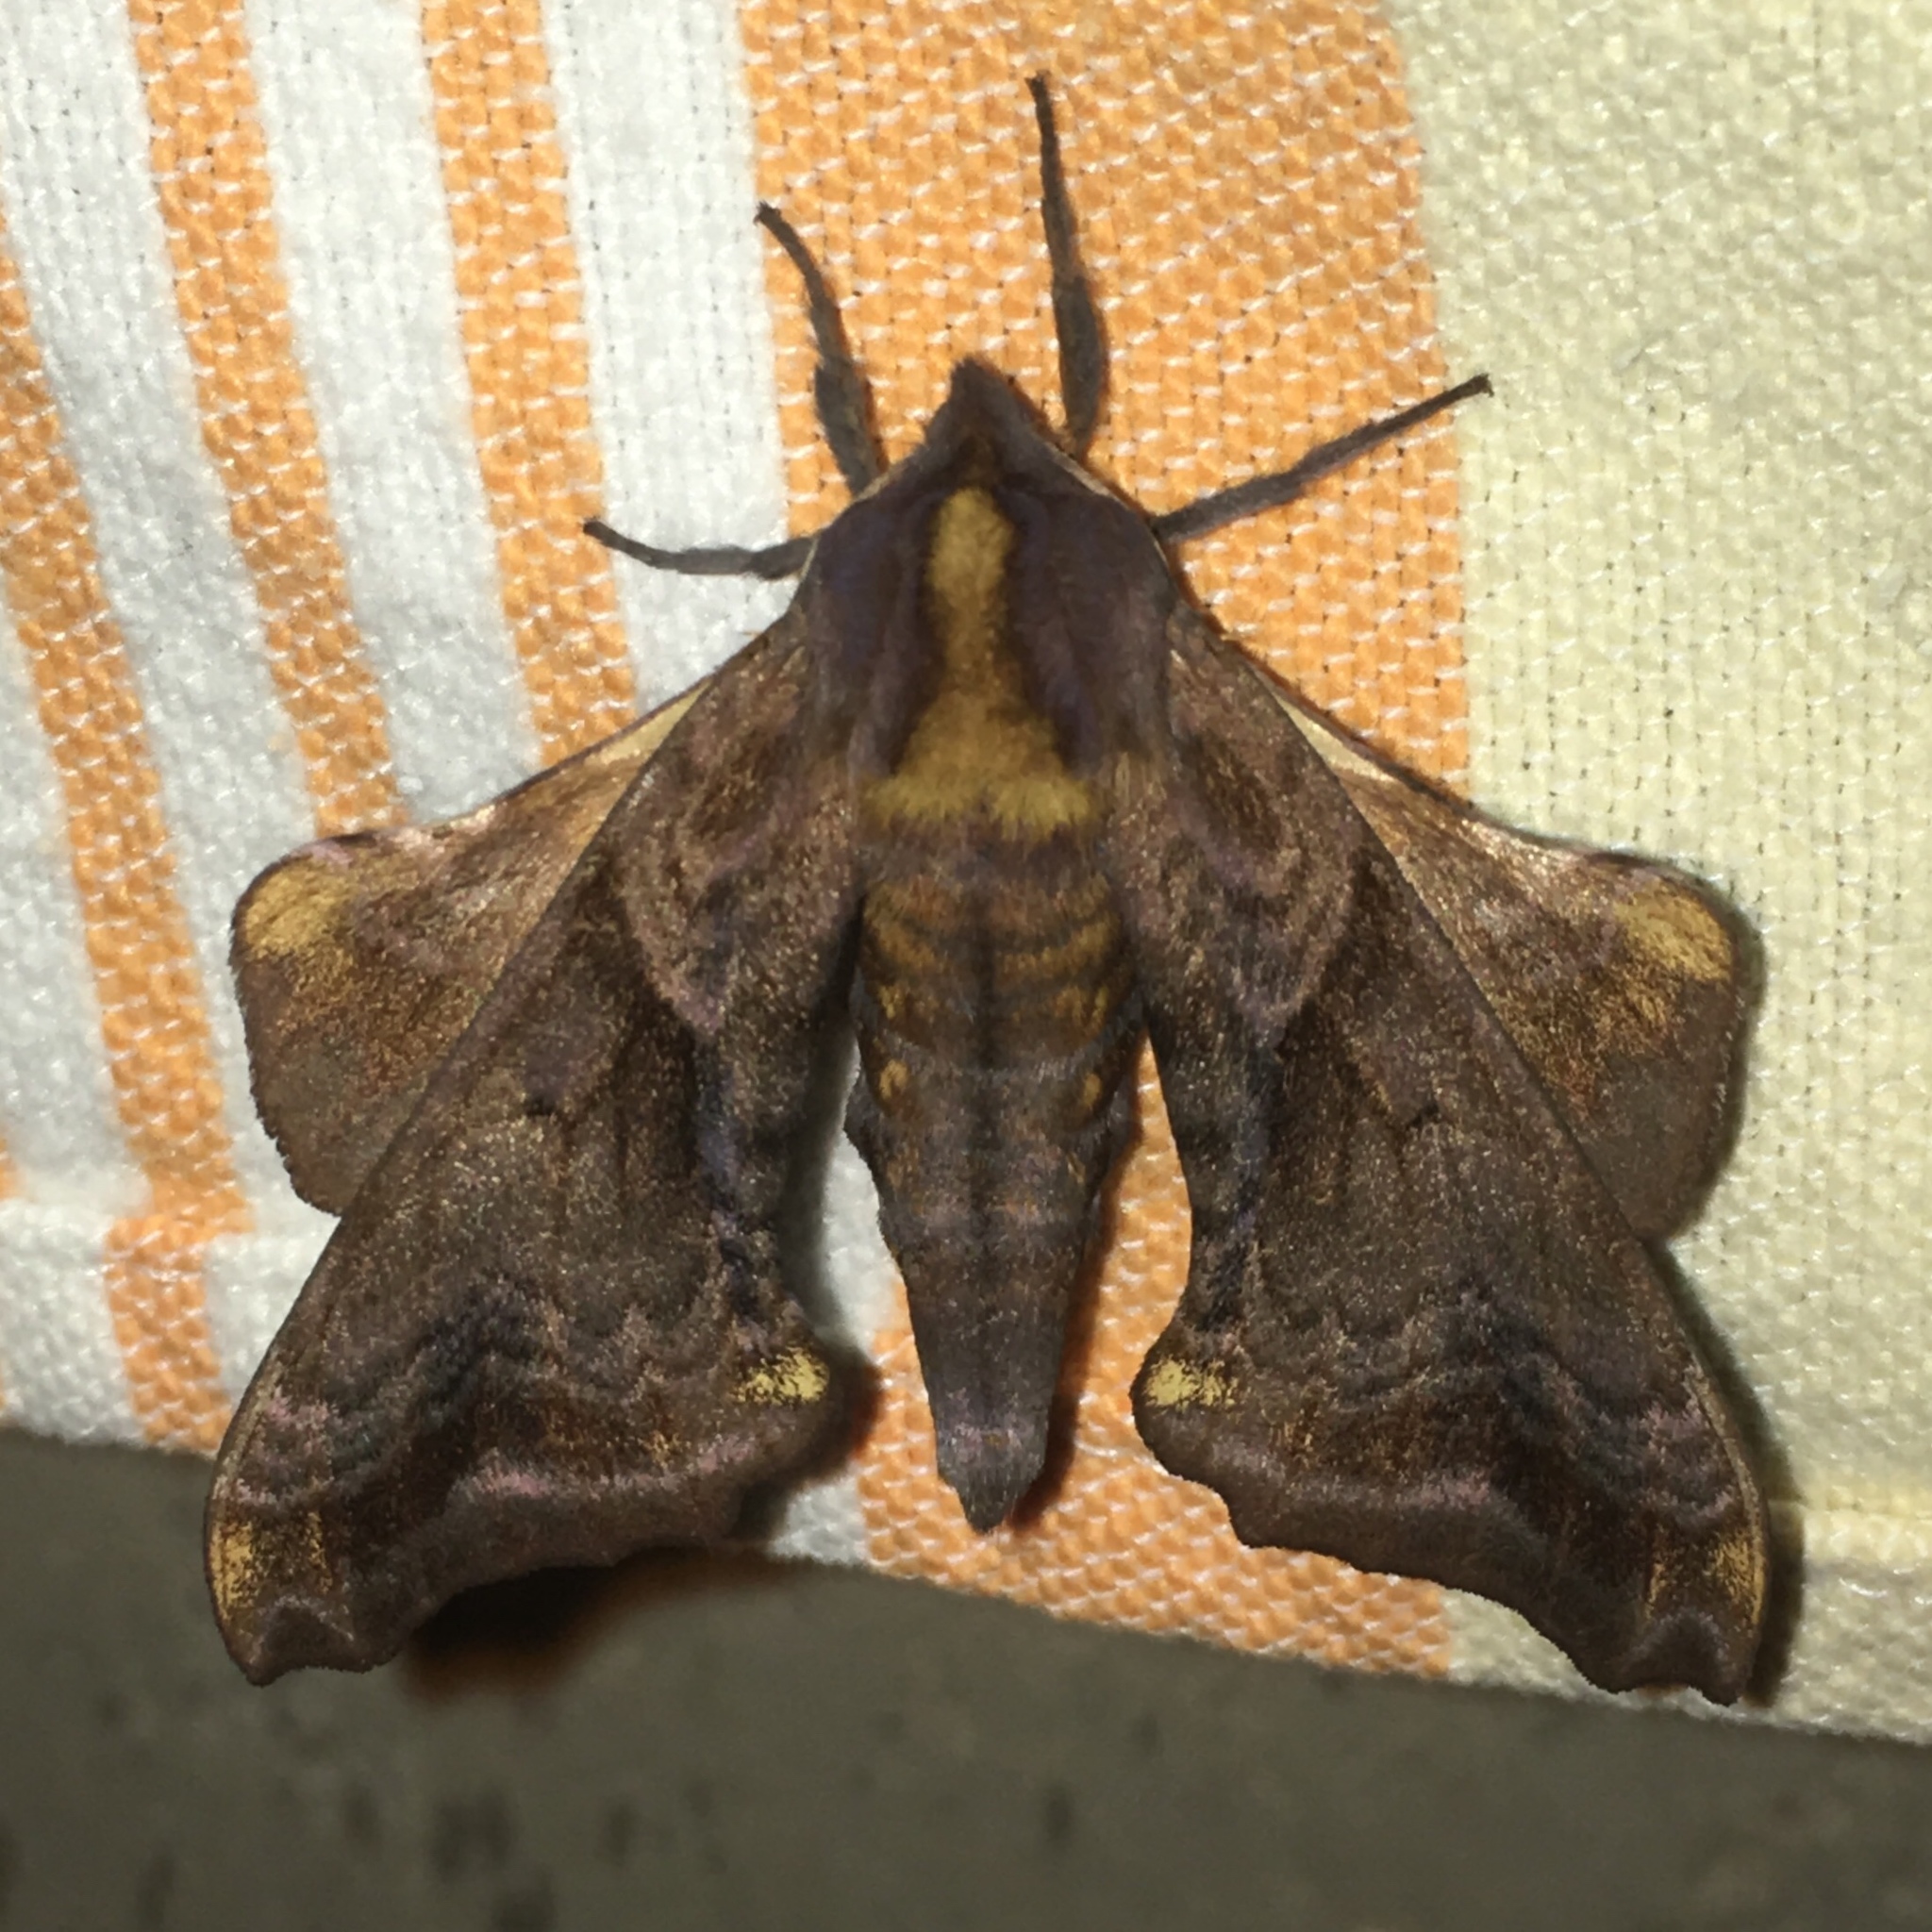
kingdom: Animalia
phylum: Arthropoda
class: Insecta
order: Lepidoptera
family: Sphingidae
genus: Paonias
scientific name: Paonias myops
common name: Small-eyed sphinx
